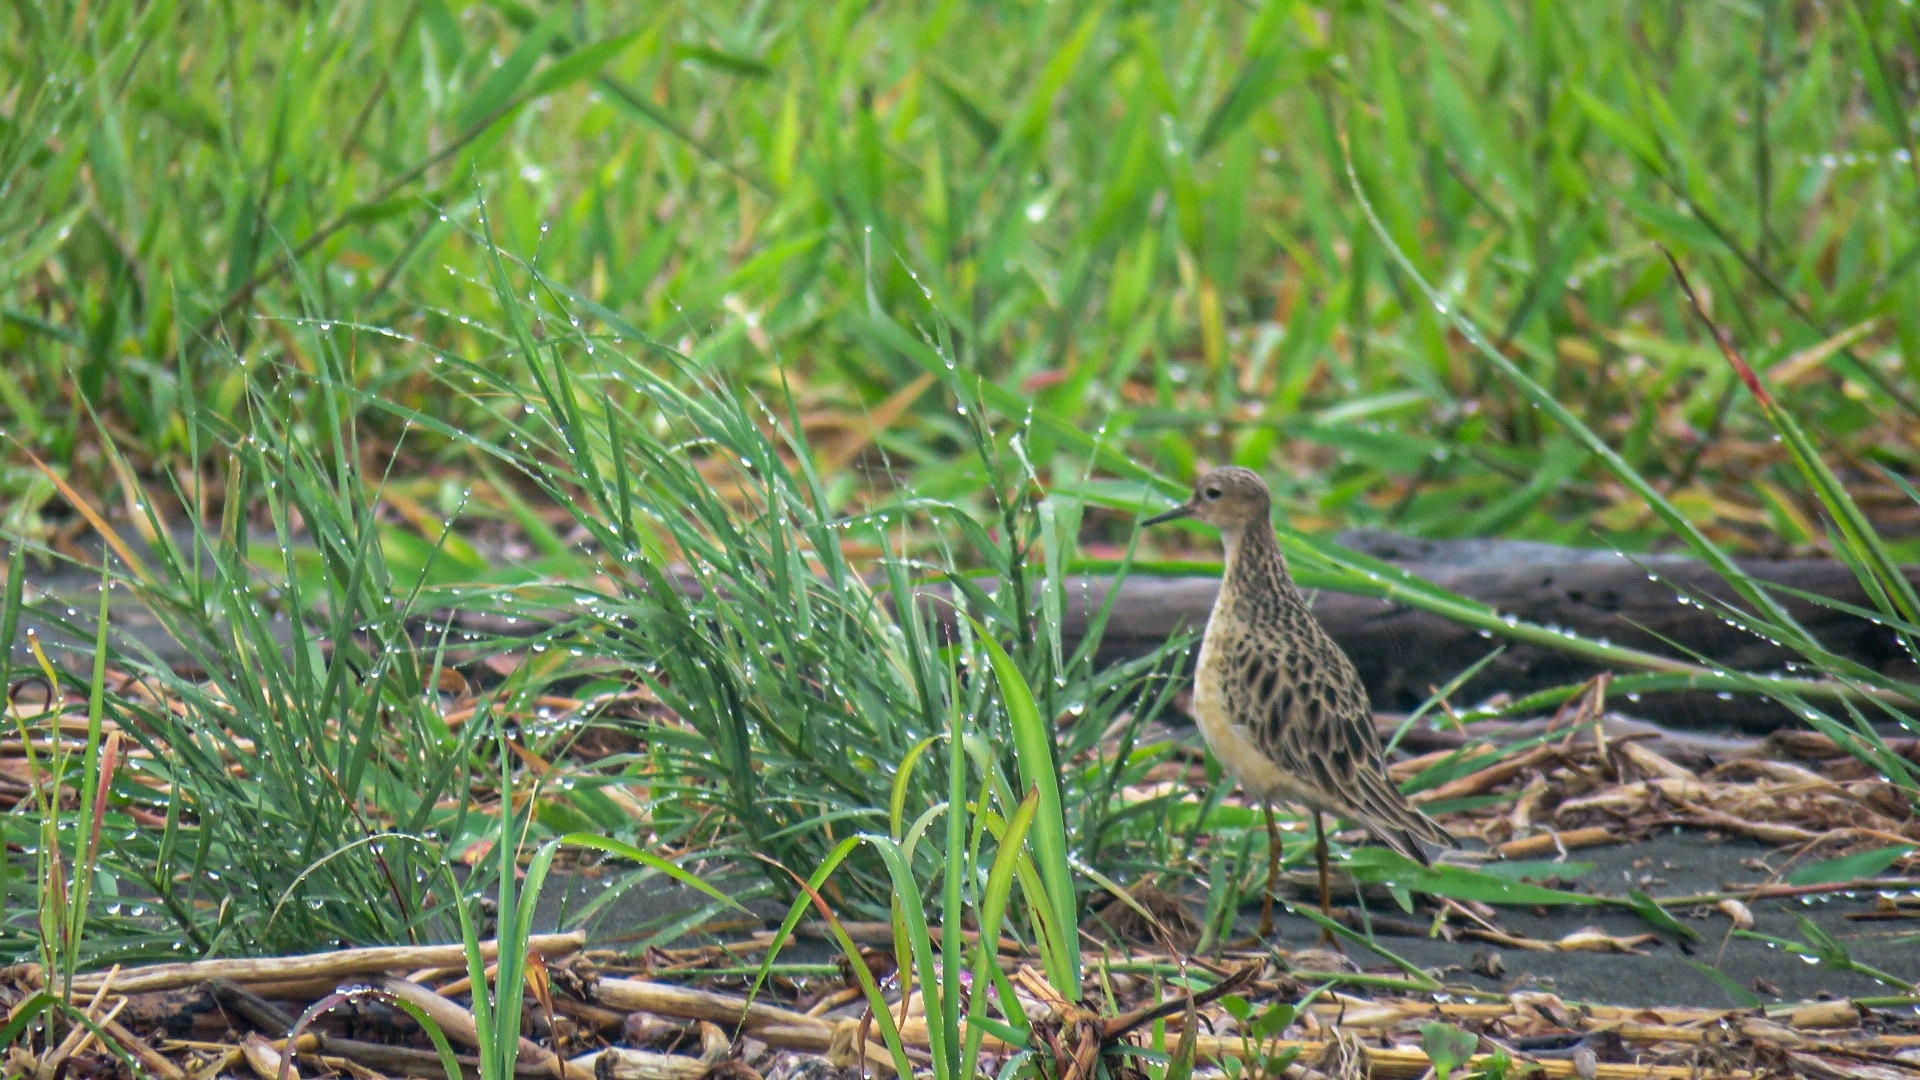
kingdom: Animalia
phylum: Chordata
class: Aves
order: Charadriiformes
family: Scolopacidae
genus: Calidris
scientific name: Calidris subruficollis
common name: Buff-breasted sandpiper
